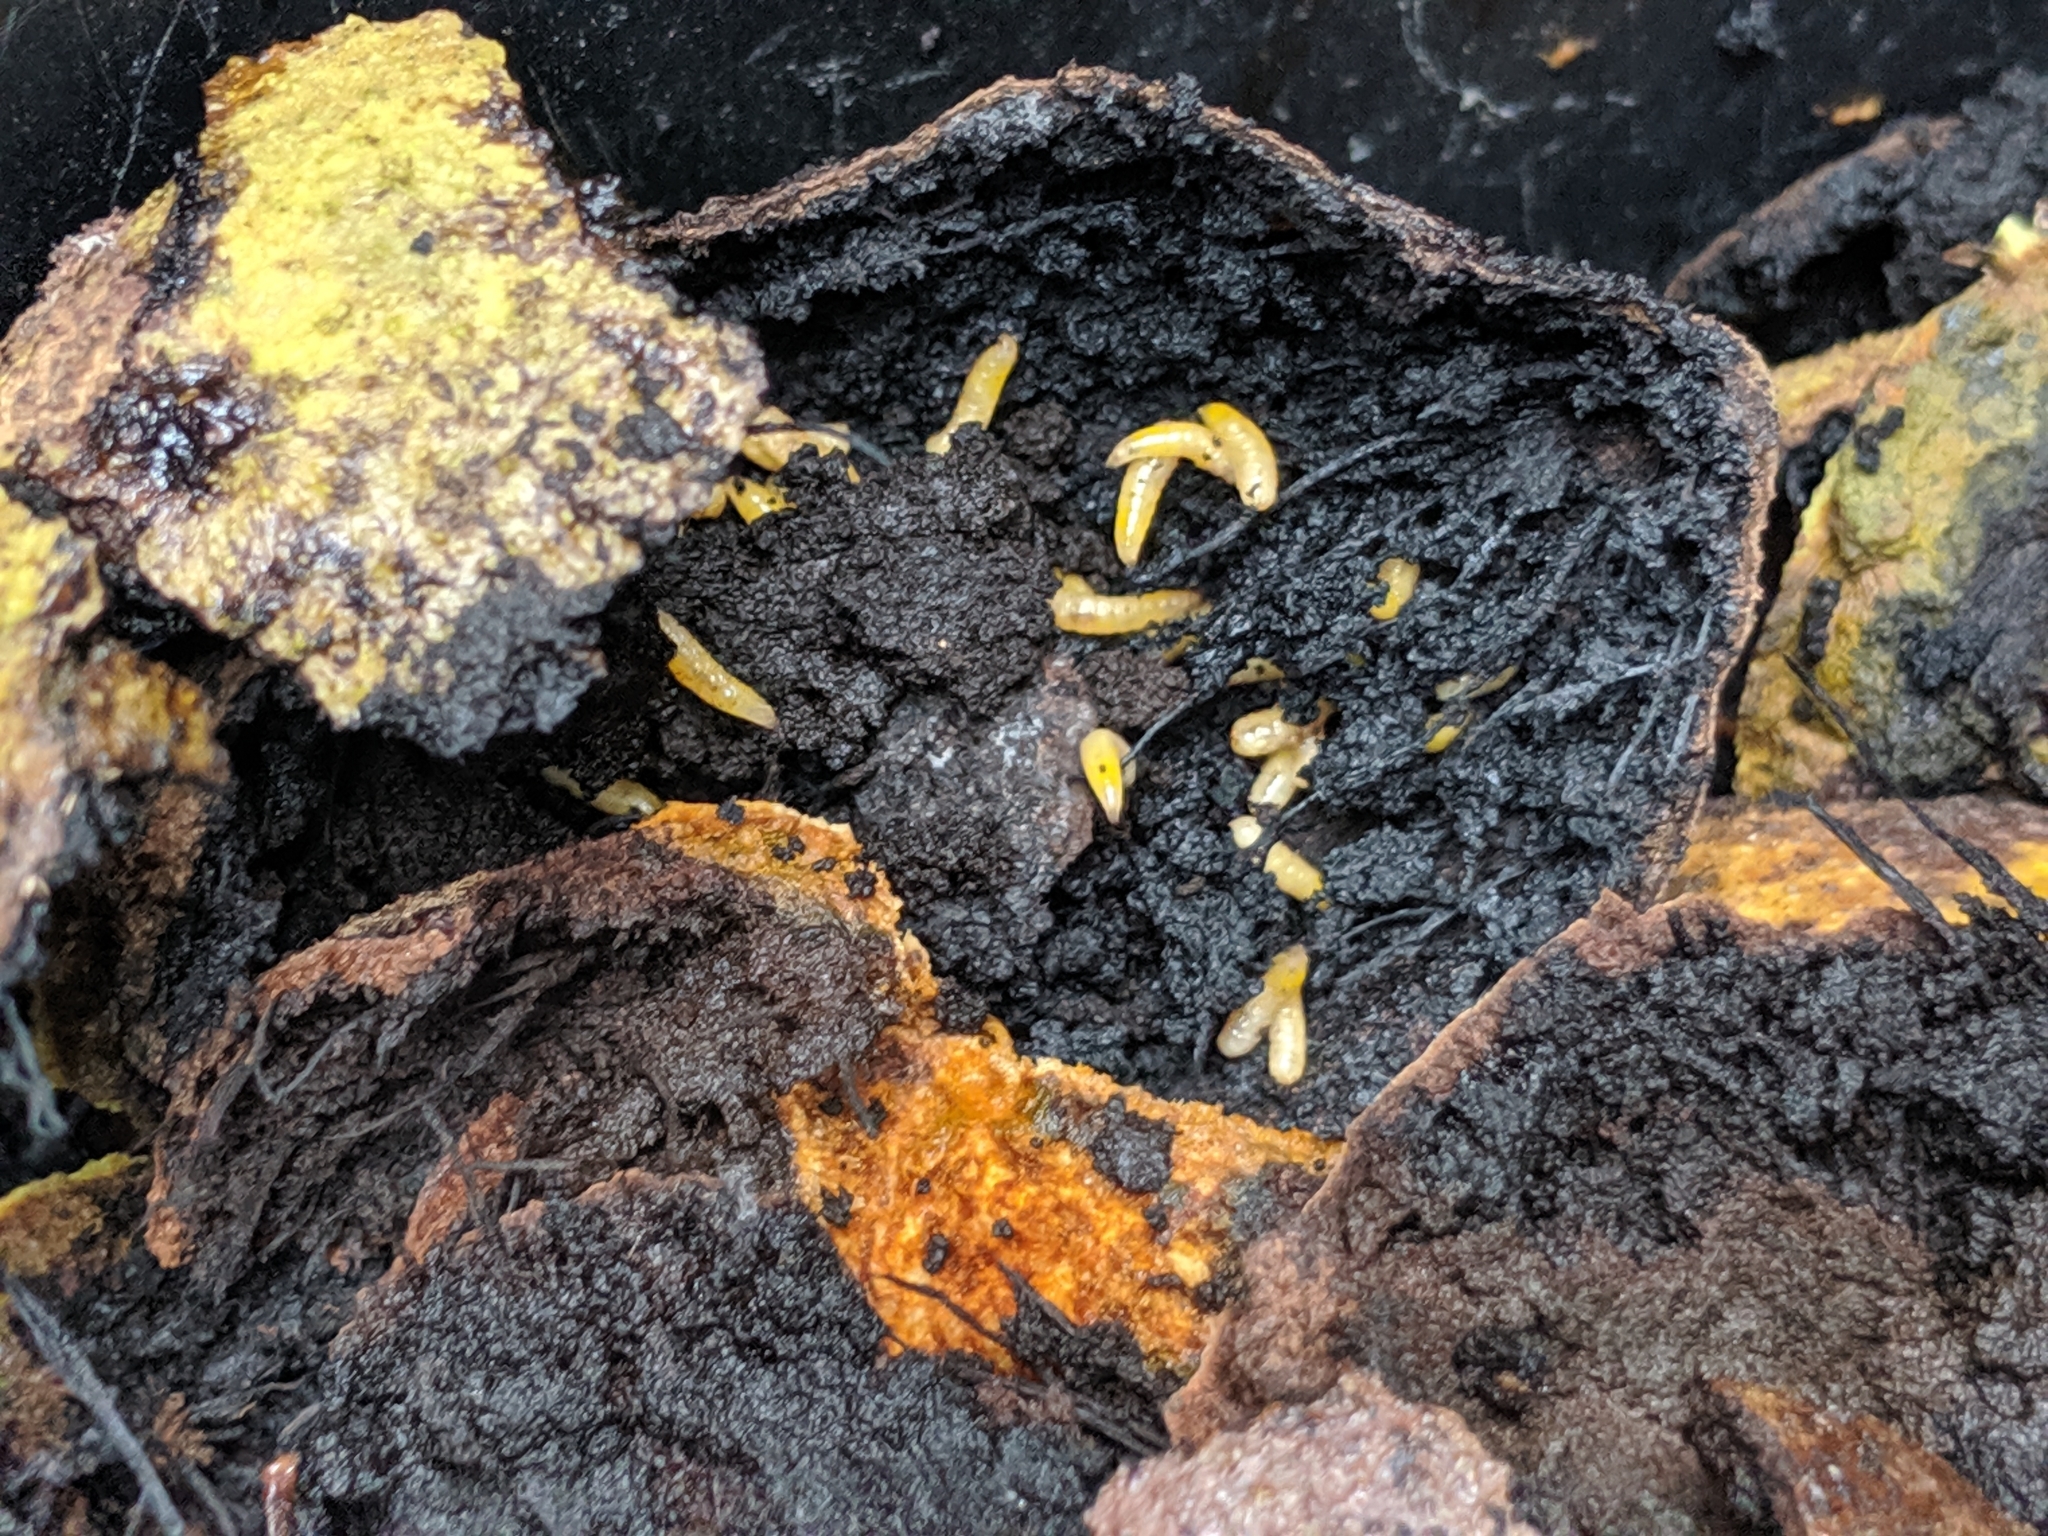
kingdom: Animalia
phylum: Arthropoda
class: Insecta
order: Diptera
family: Tephritidae
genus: Rhagoletis
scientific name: Rhagoletis suavis
